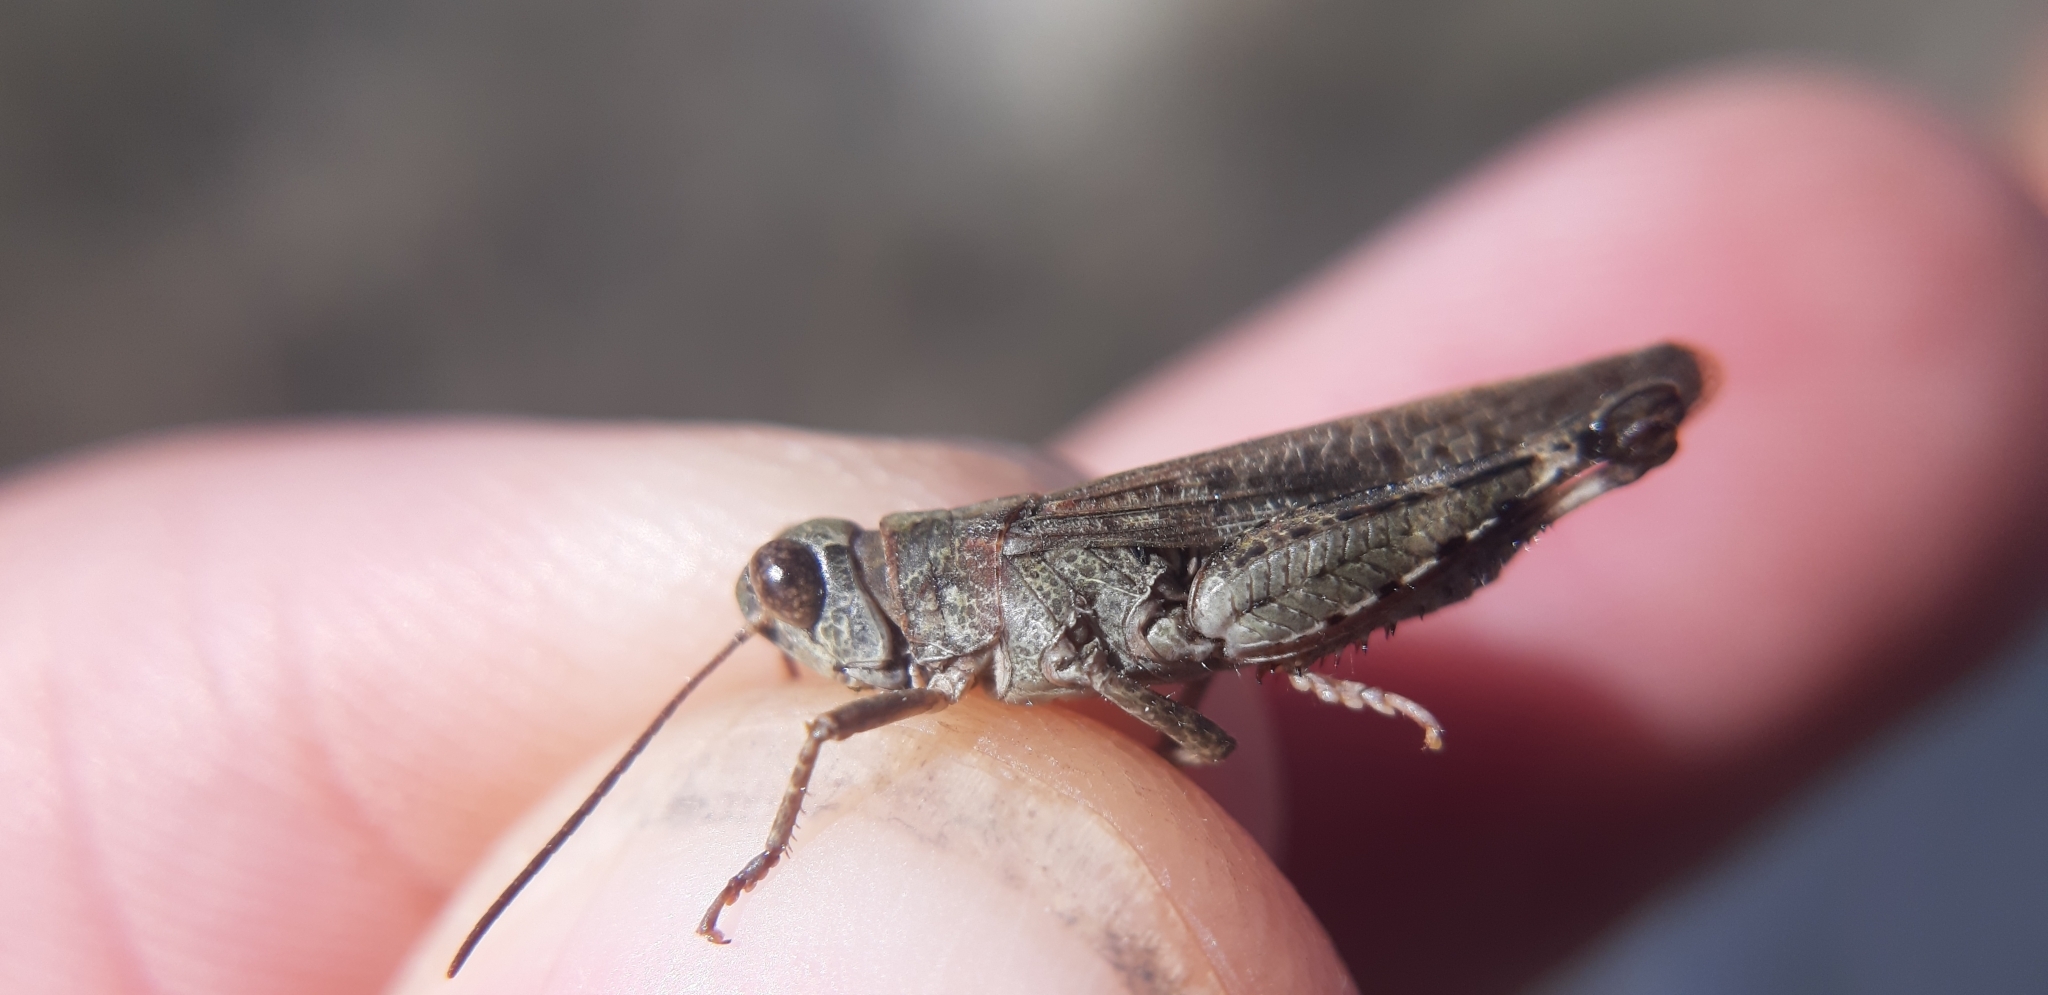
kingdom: Animalia
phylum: Arthropoda
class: Insecta
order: Orthoptera
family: Acrididae
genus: Epacromius
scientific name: Epacromius coerulipes
